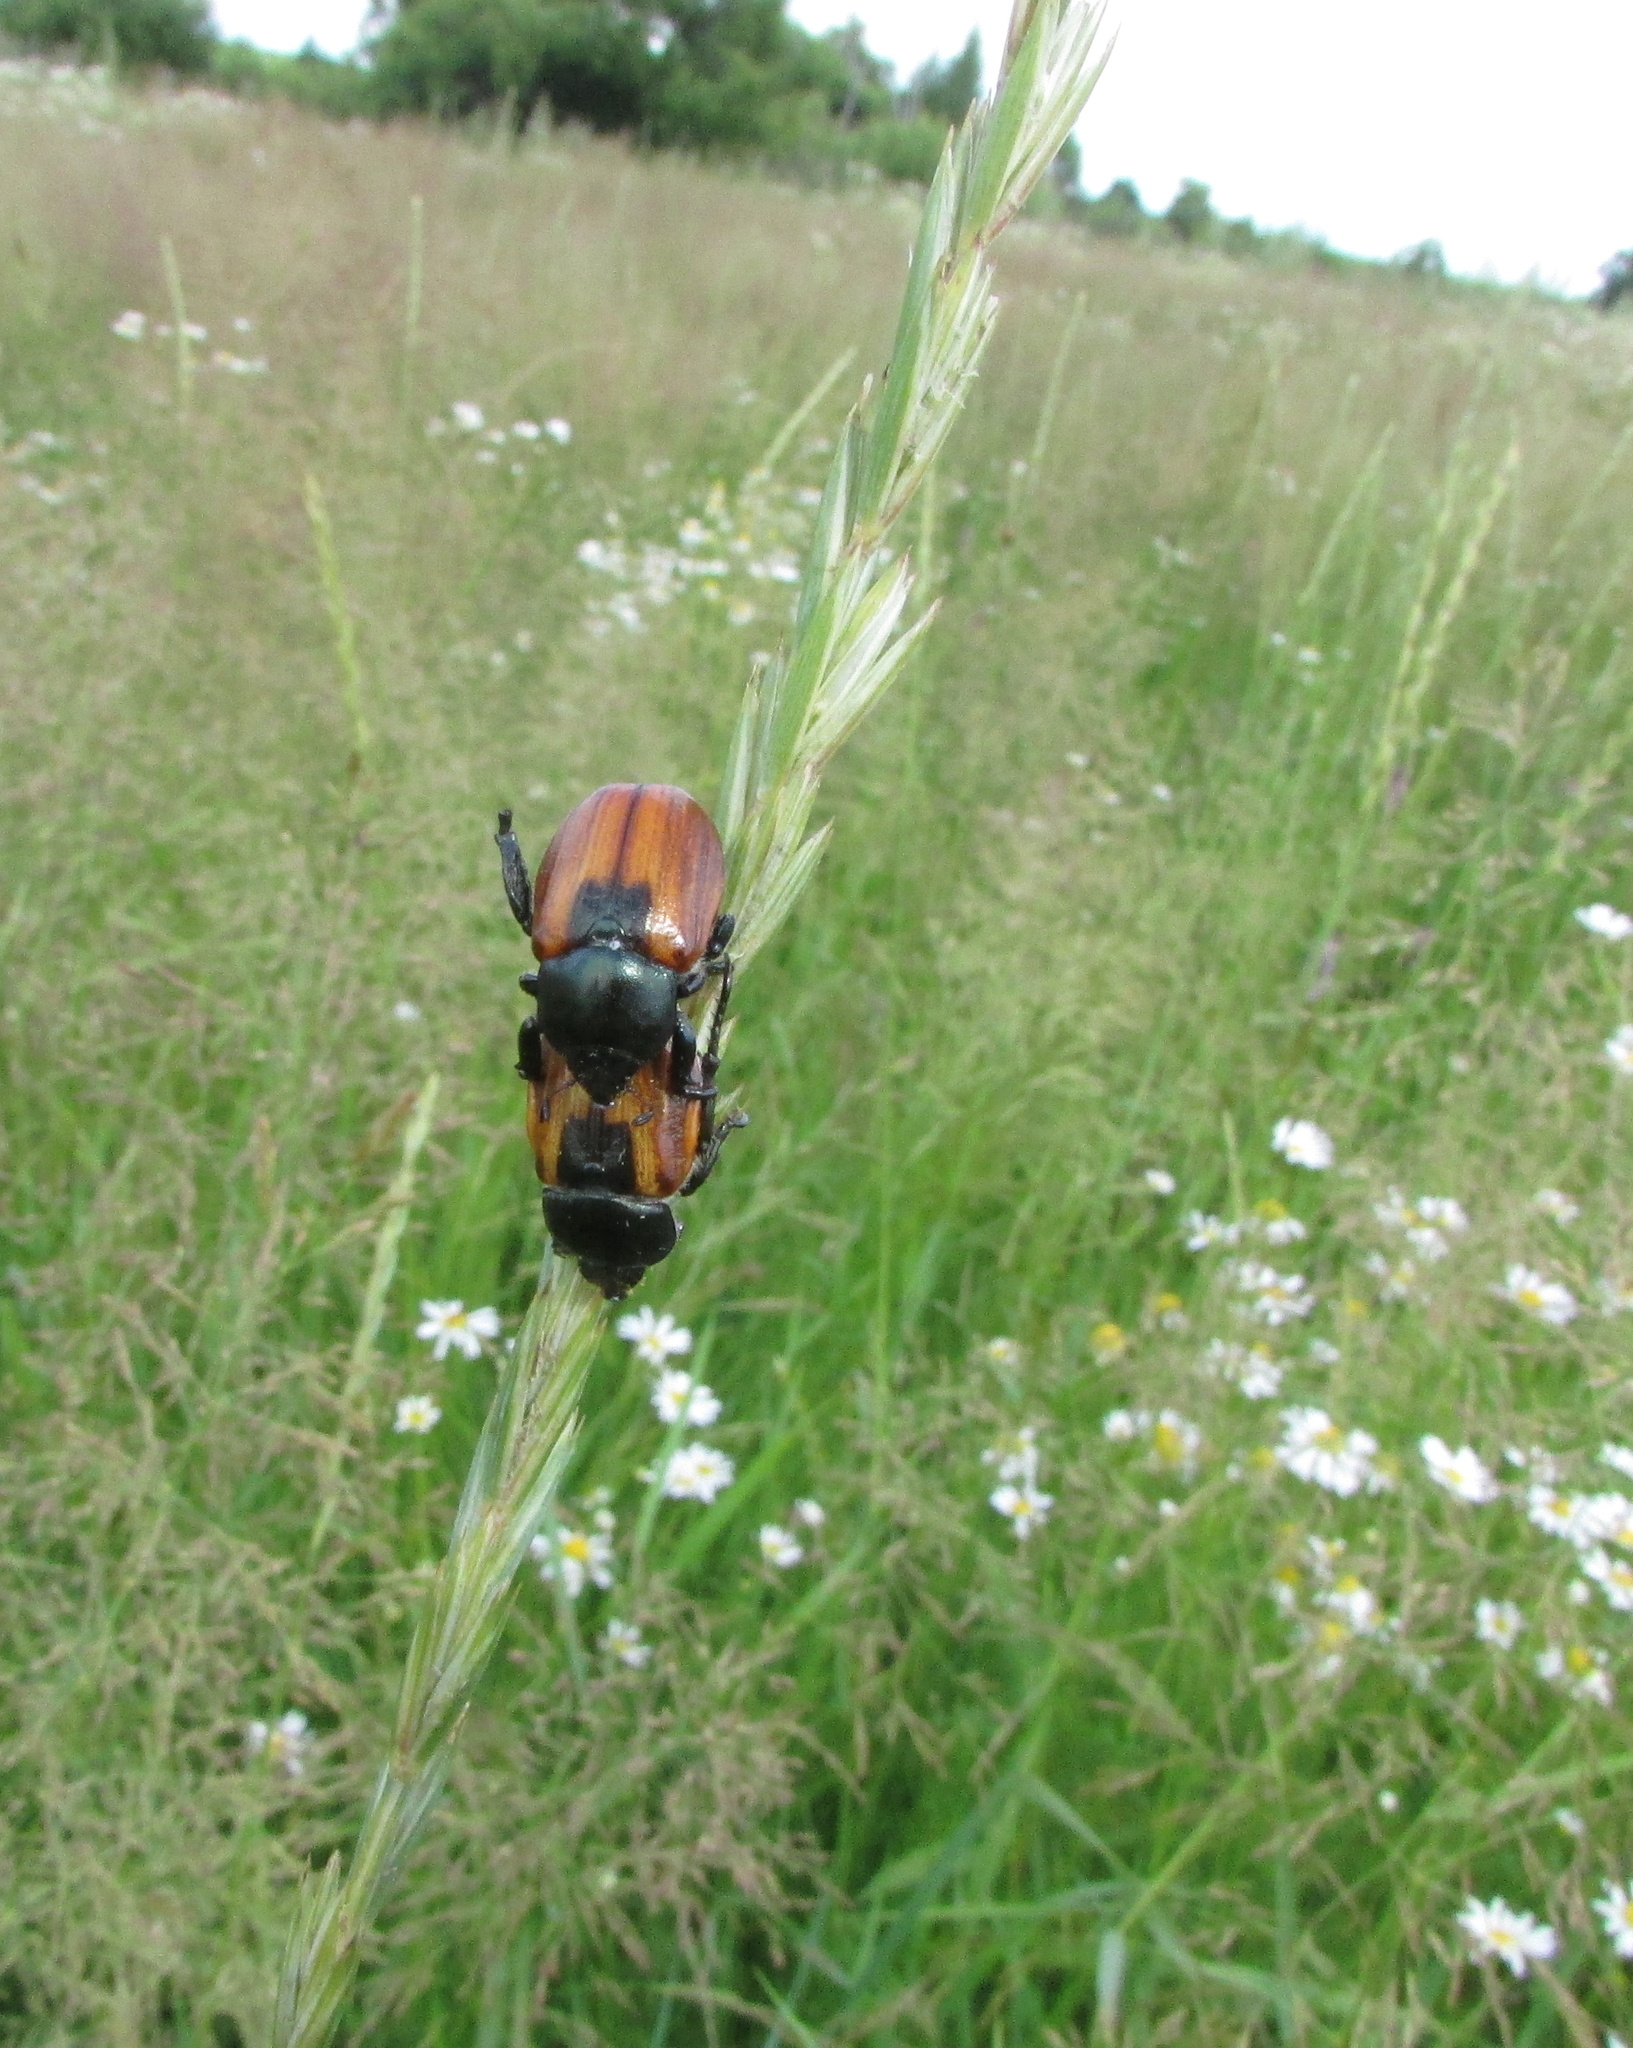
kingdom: Animalia
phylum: Arthropoda
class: Insecta
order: Coleoptera
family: Scarabaeidae
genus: Anisoplia
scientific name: Anisoplia austriaca
